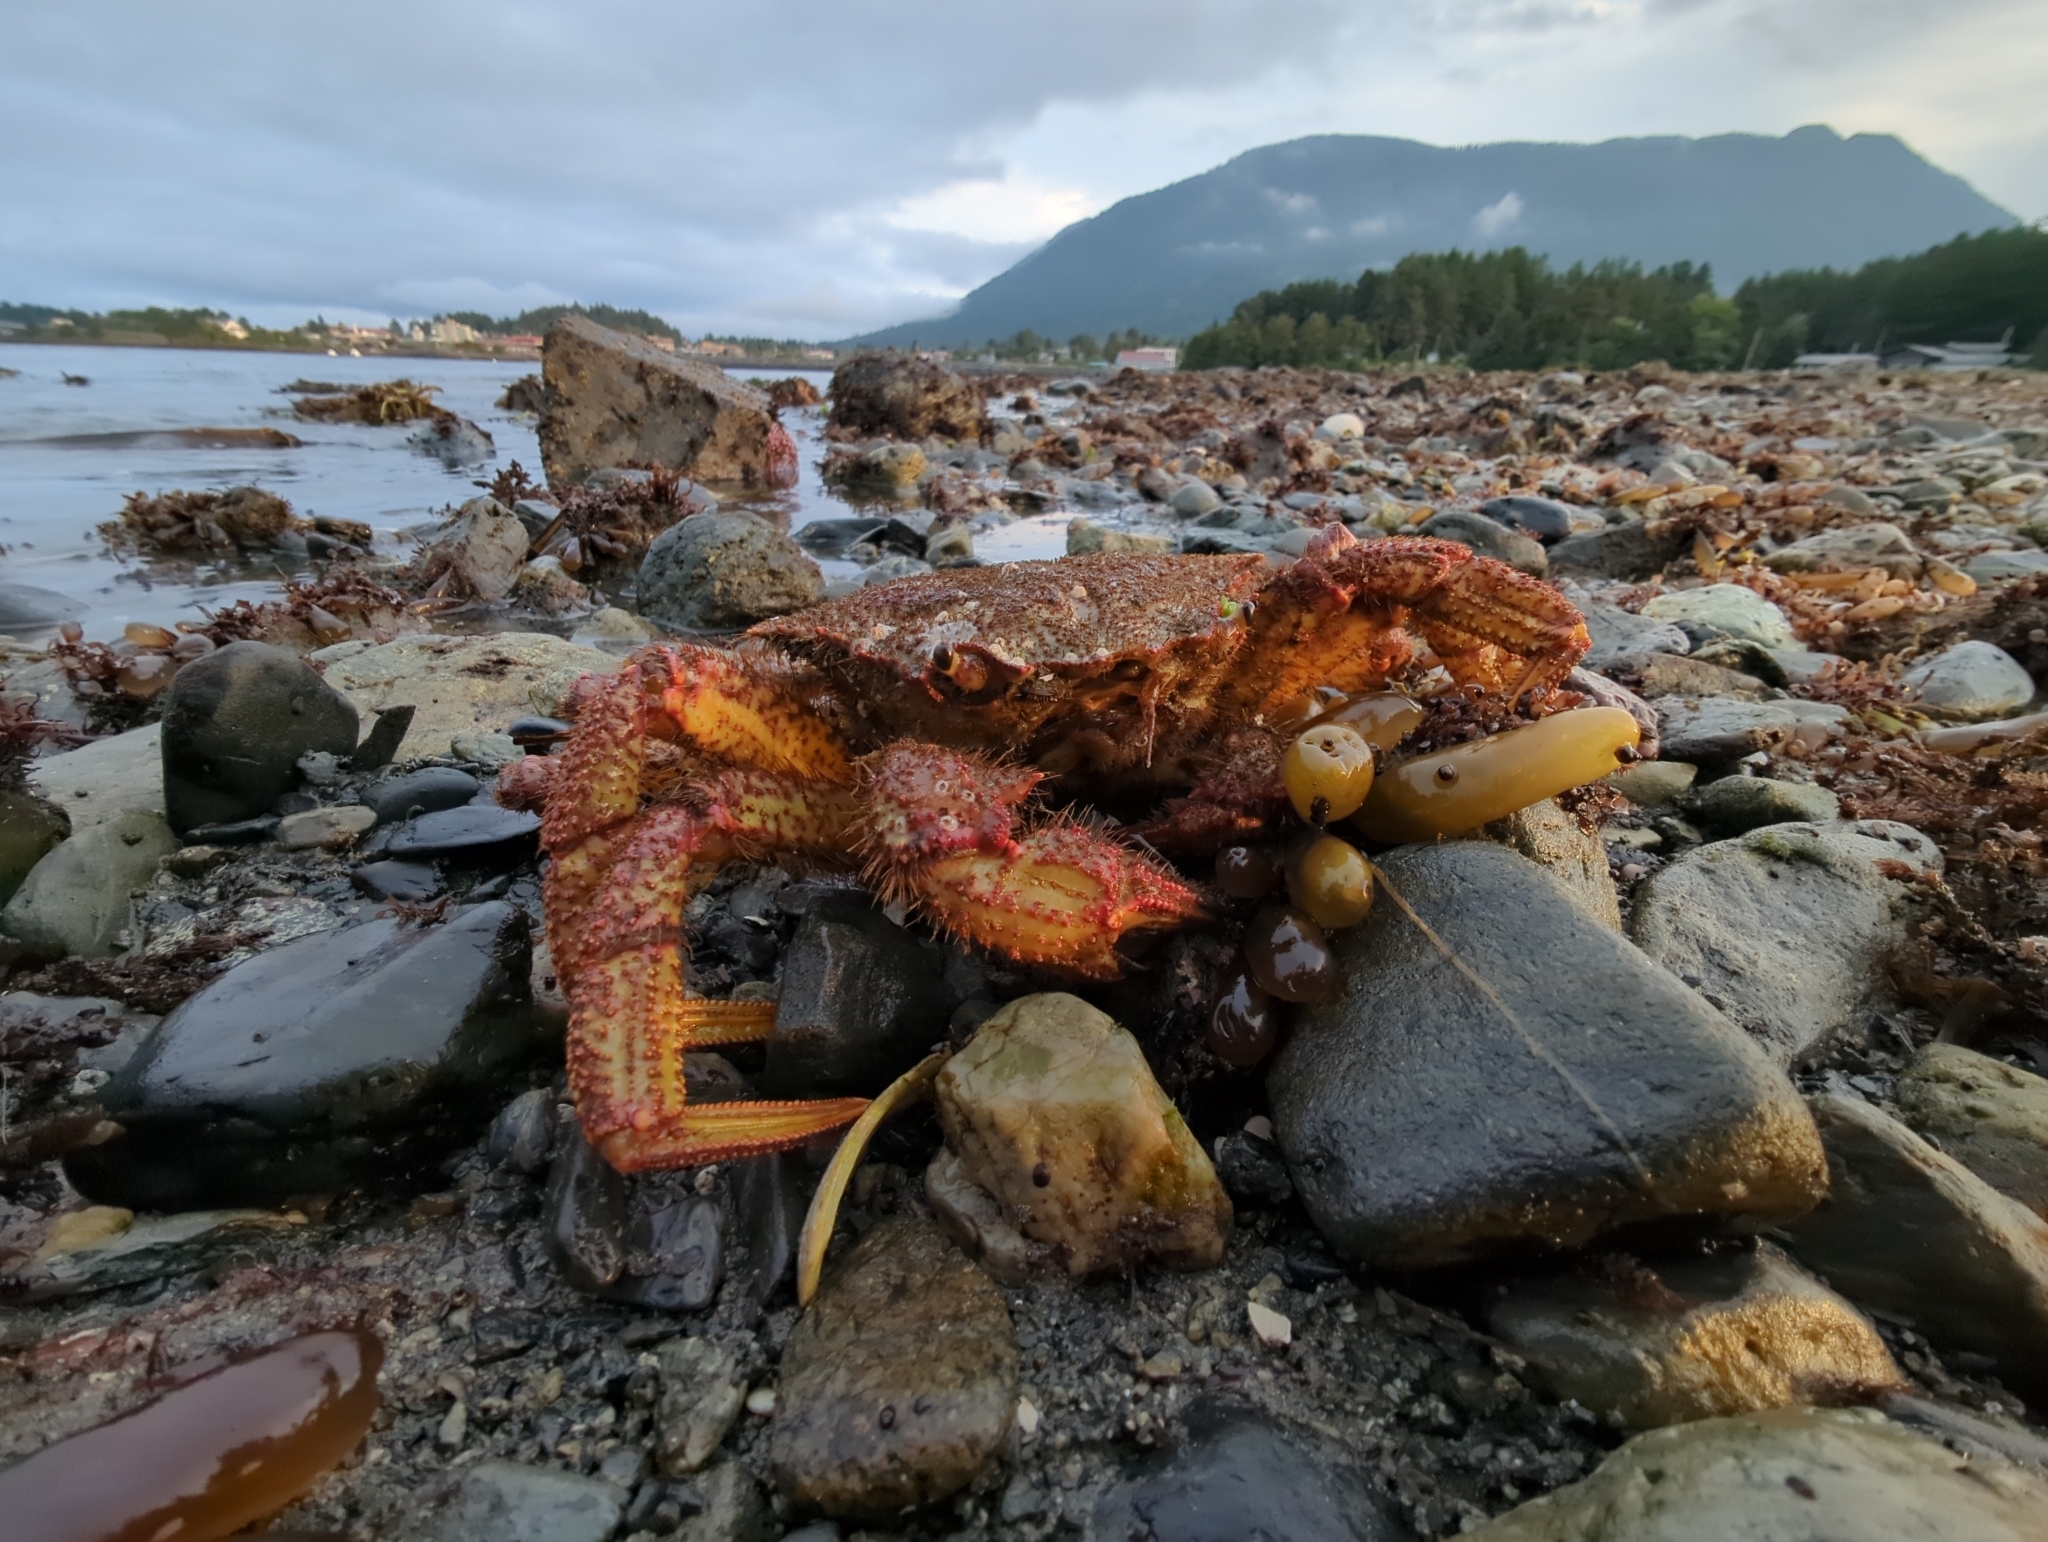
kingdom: Animalia
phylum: Arthropoda
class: Malacostraca
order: Decapoda
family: Cheiragonidae
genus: Telmessus
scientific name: Telmessus cheiragonus
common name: Helmet crab
